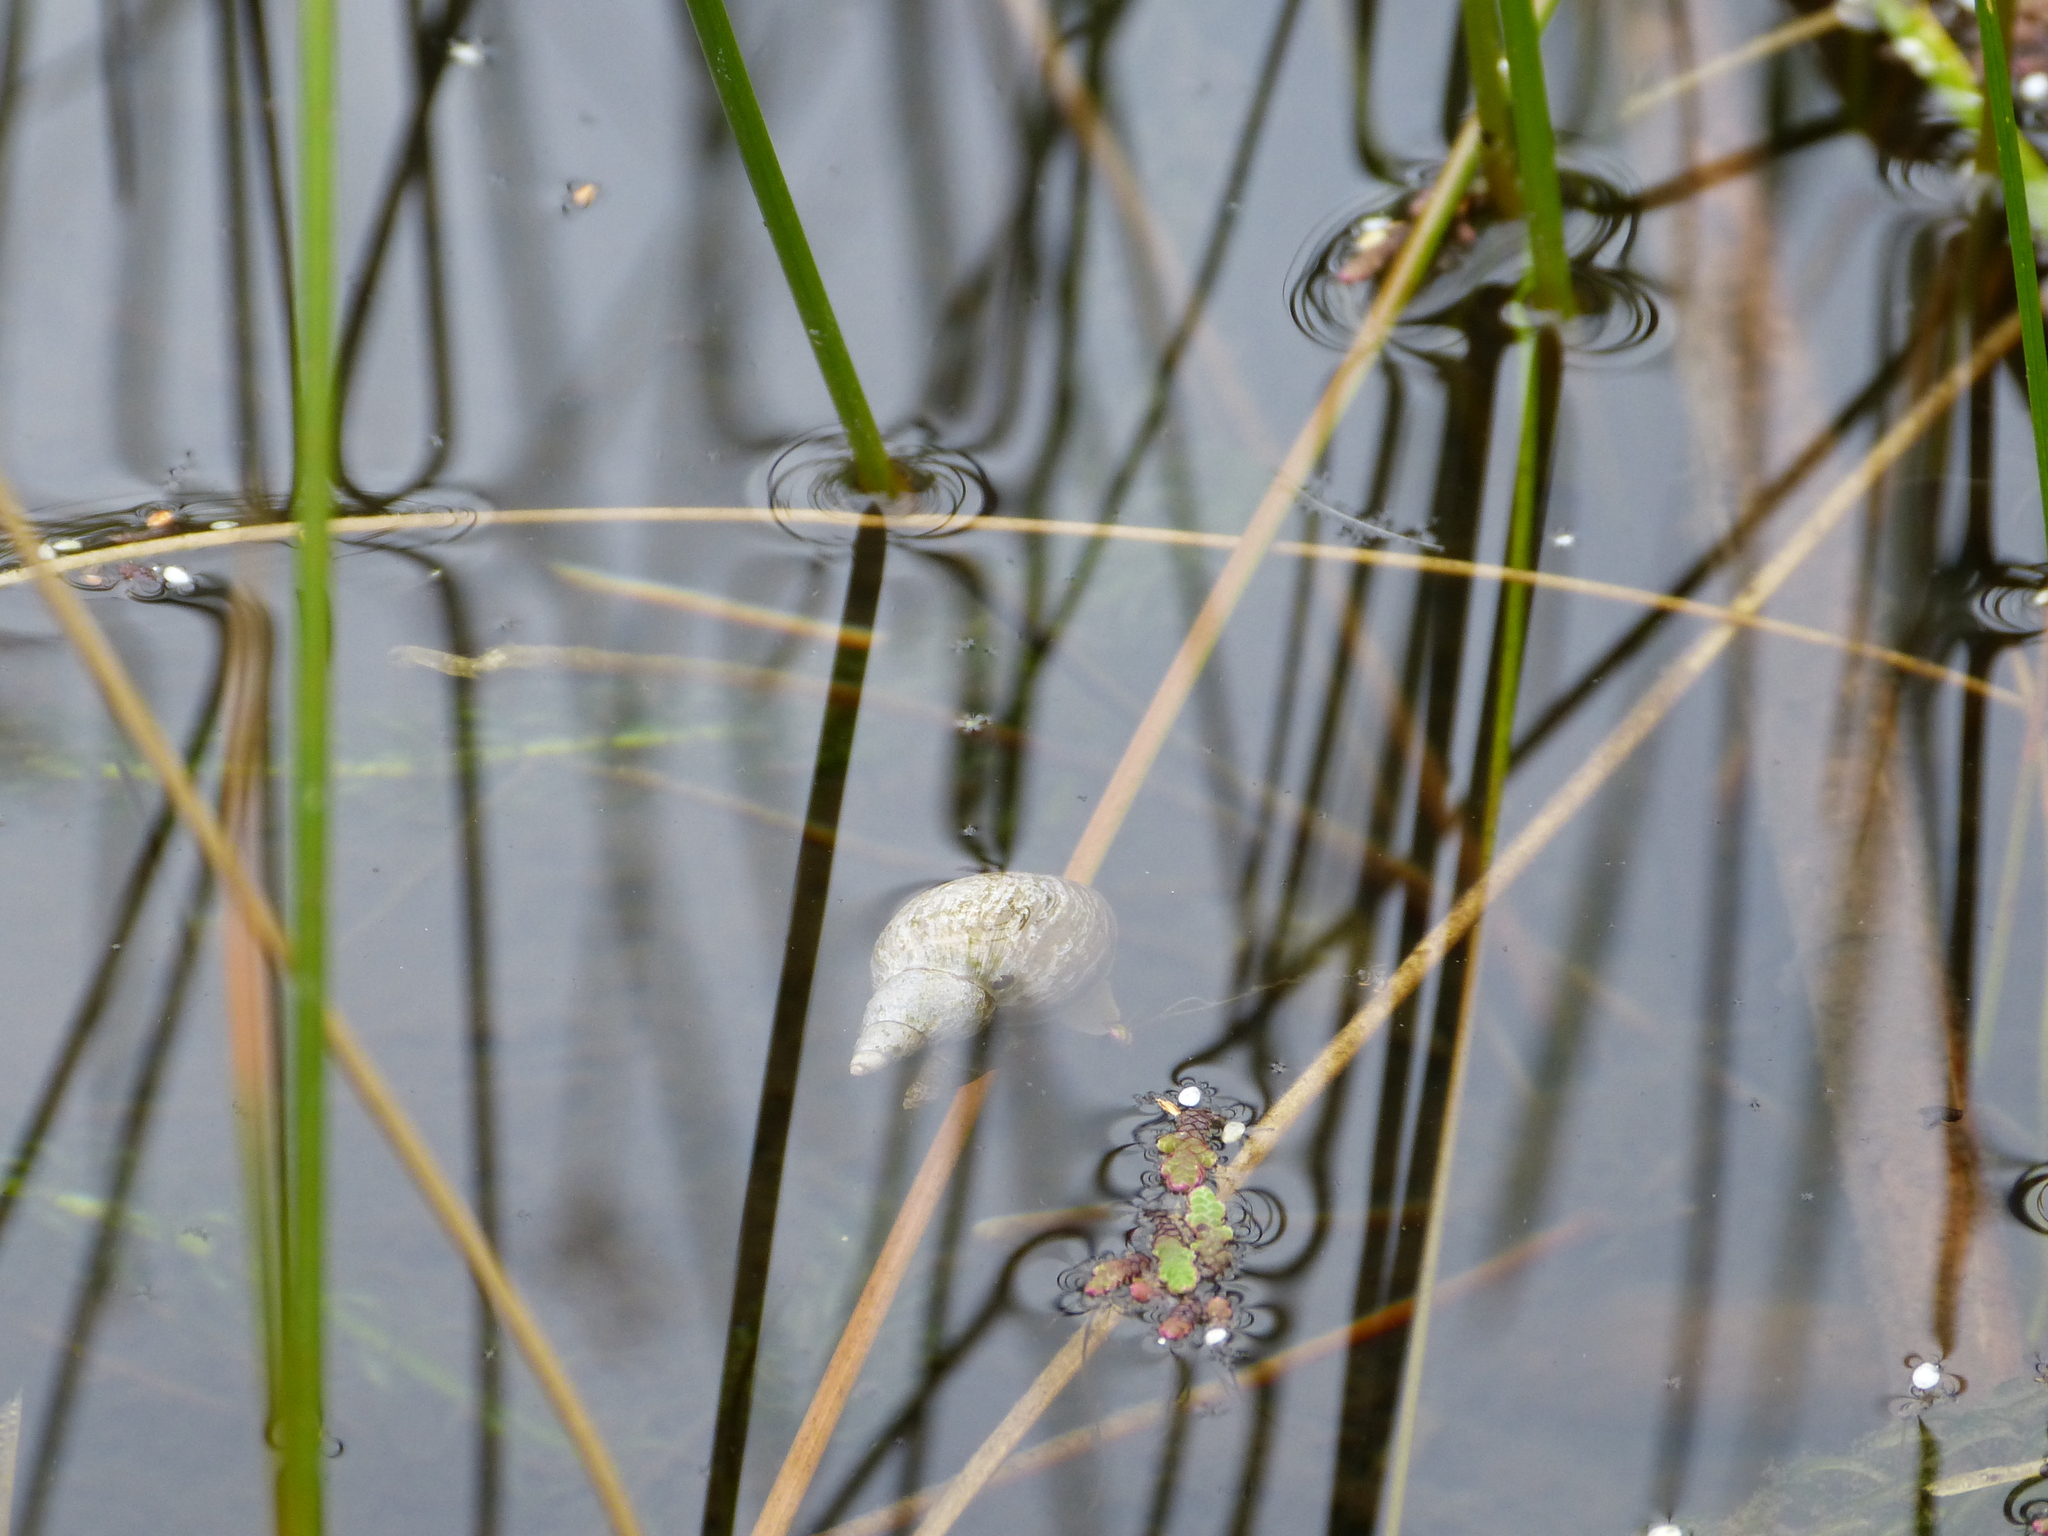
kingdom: Animalia
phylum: Mollusca
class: Gastropoda
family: Lymnaeidae
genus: Lymnaea
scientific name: Lymnaea stagnalis
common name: Great pond snail
